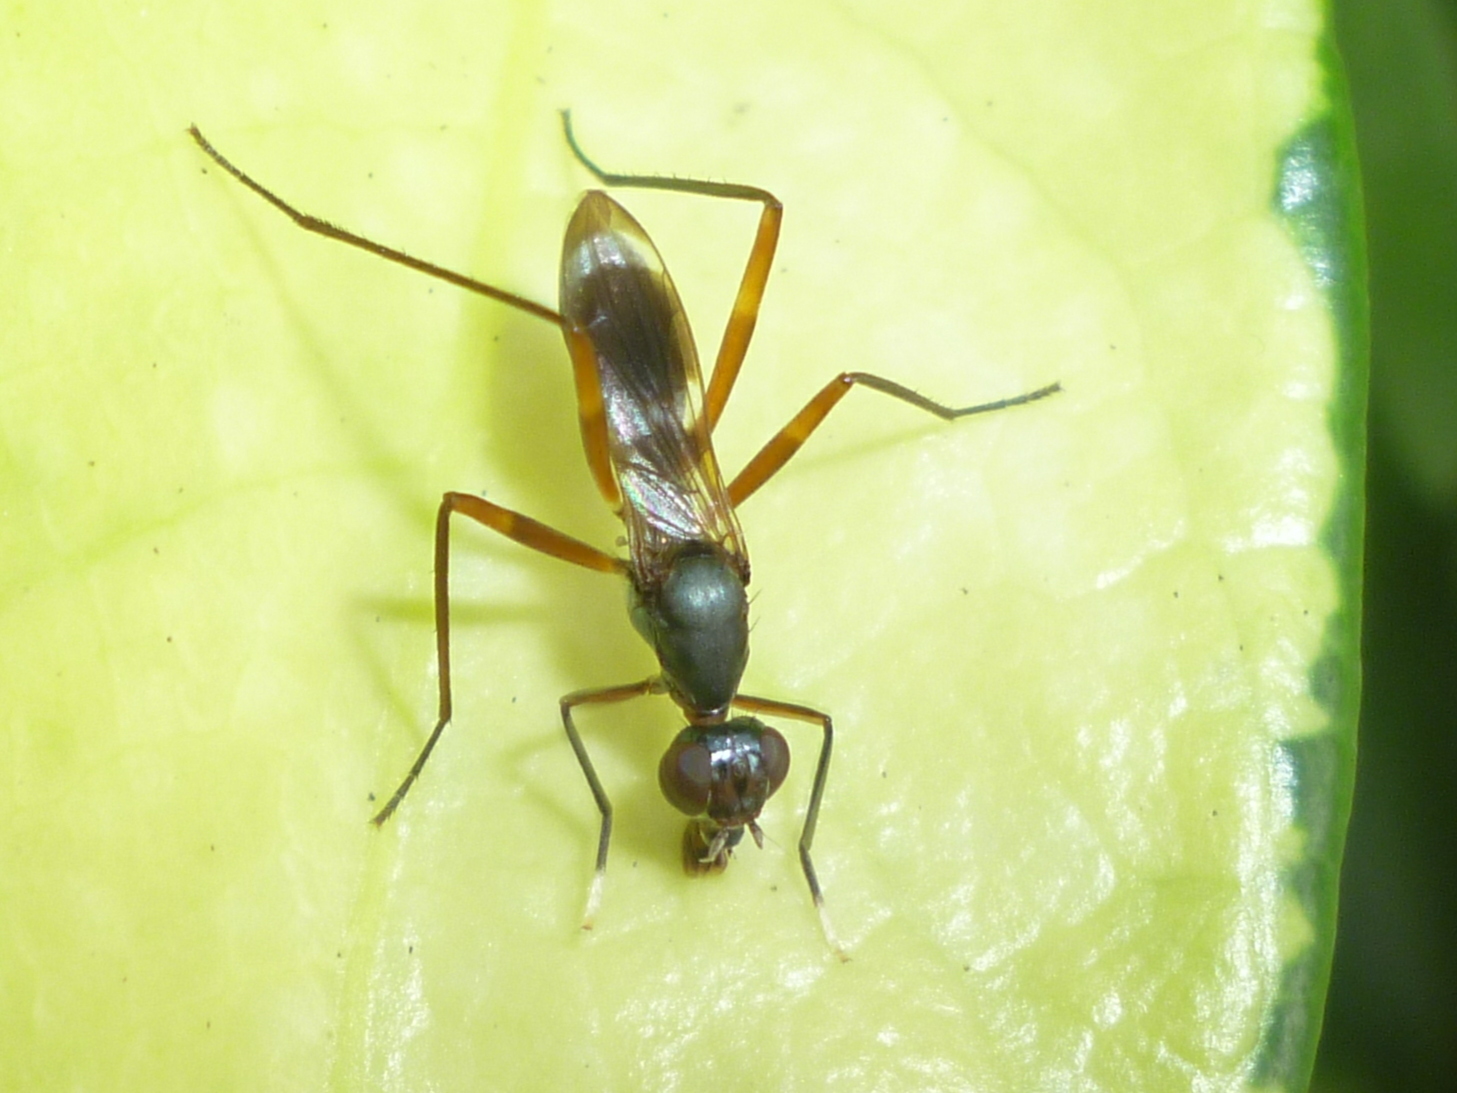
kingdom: Animalia
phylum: Arthropoda
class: Insecta
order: Diptera
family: Micropezidae
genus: Taeniaptera
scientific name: Taeniaptera trivittata
